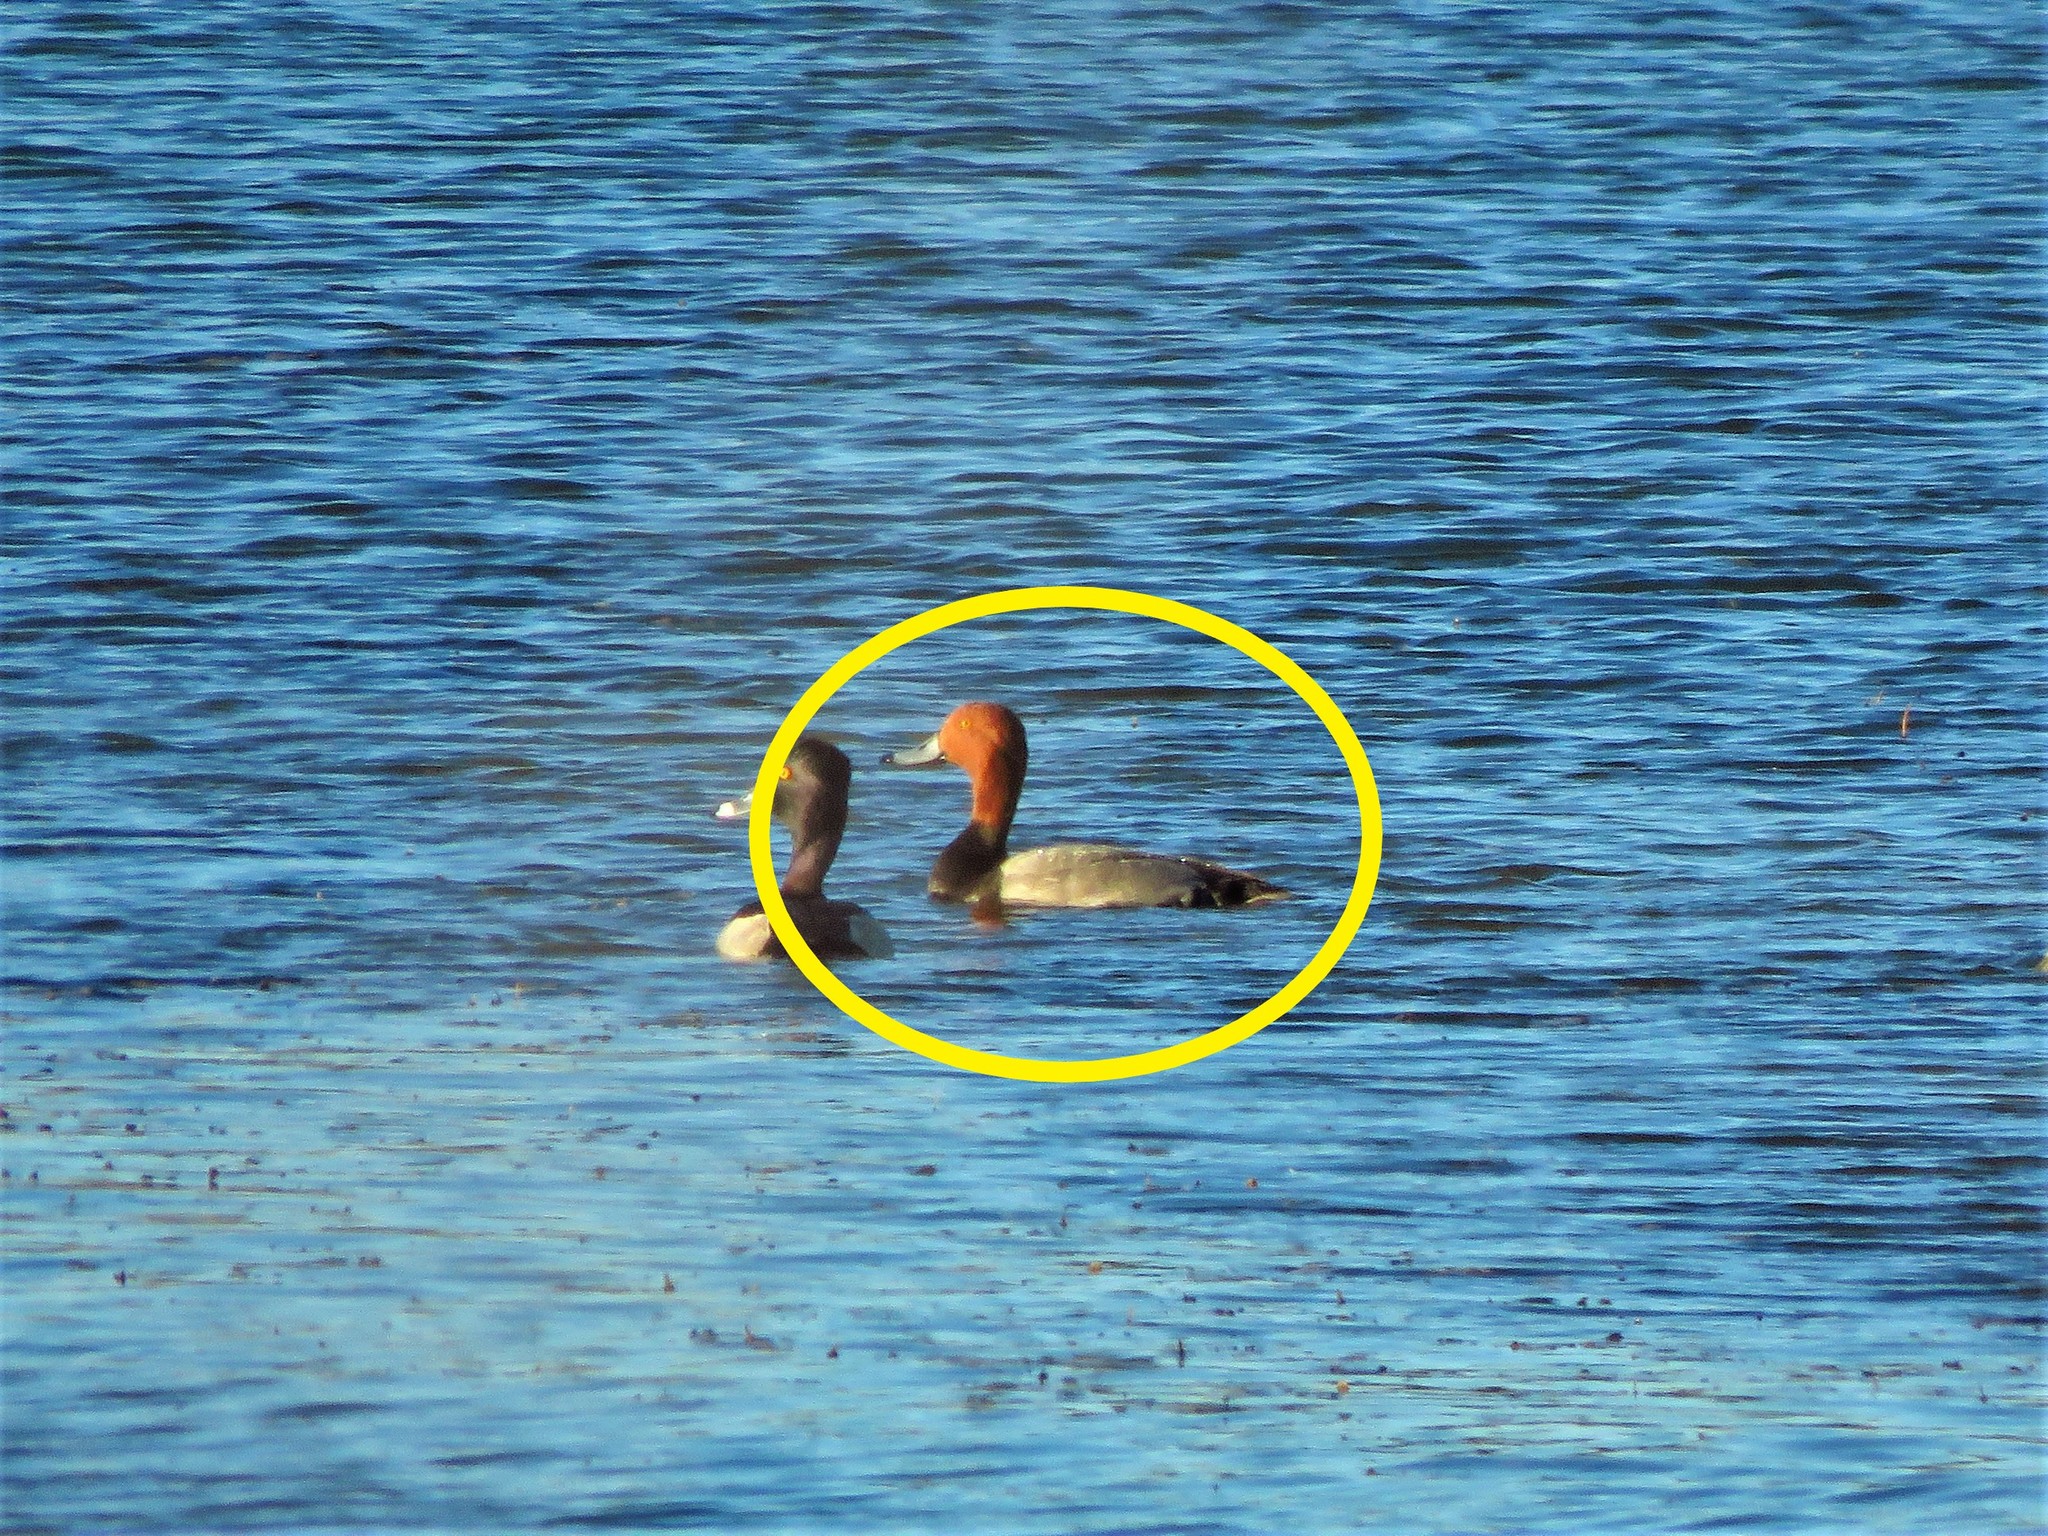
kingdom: Animalia
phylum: Chordata
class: Aves
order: Anseriformes
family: Anatidae
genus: Aythya
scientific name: Aythya americana
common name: Redhead
